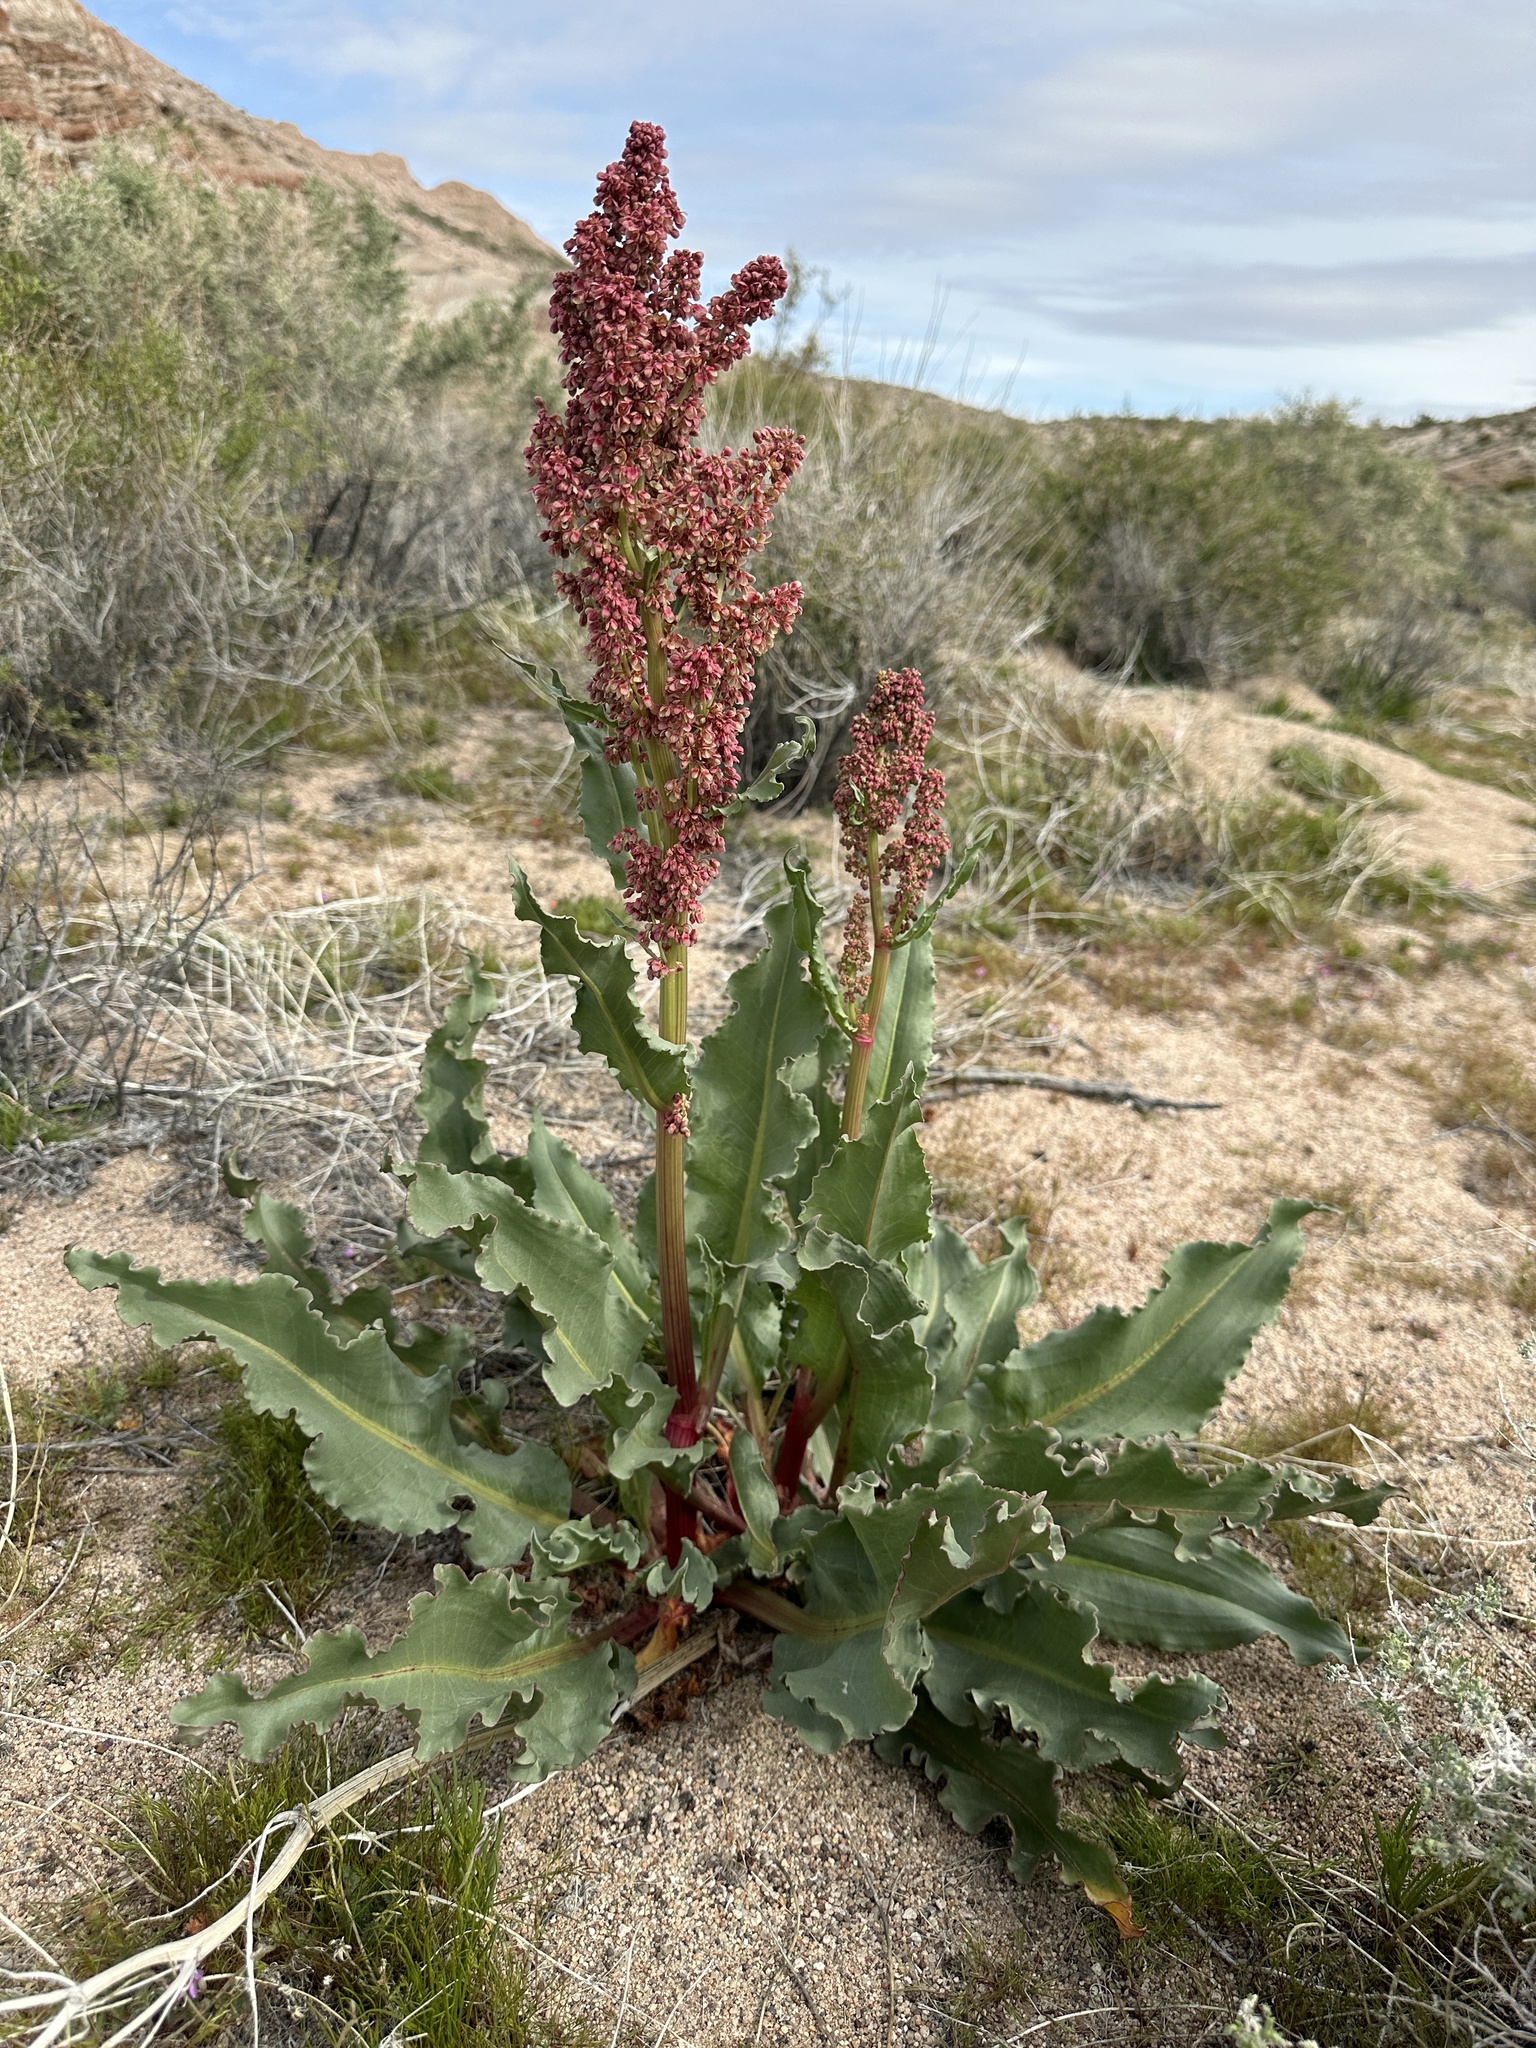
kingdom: Plantae
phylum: Tracheophyta
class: Magnoliopsida
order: Caryophyllales
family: Polygonaceae
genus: Rumex
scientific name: Rumex hymenosepalus
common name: Ganagra
